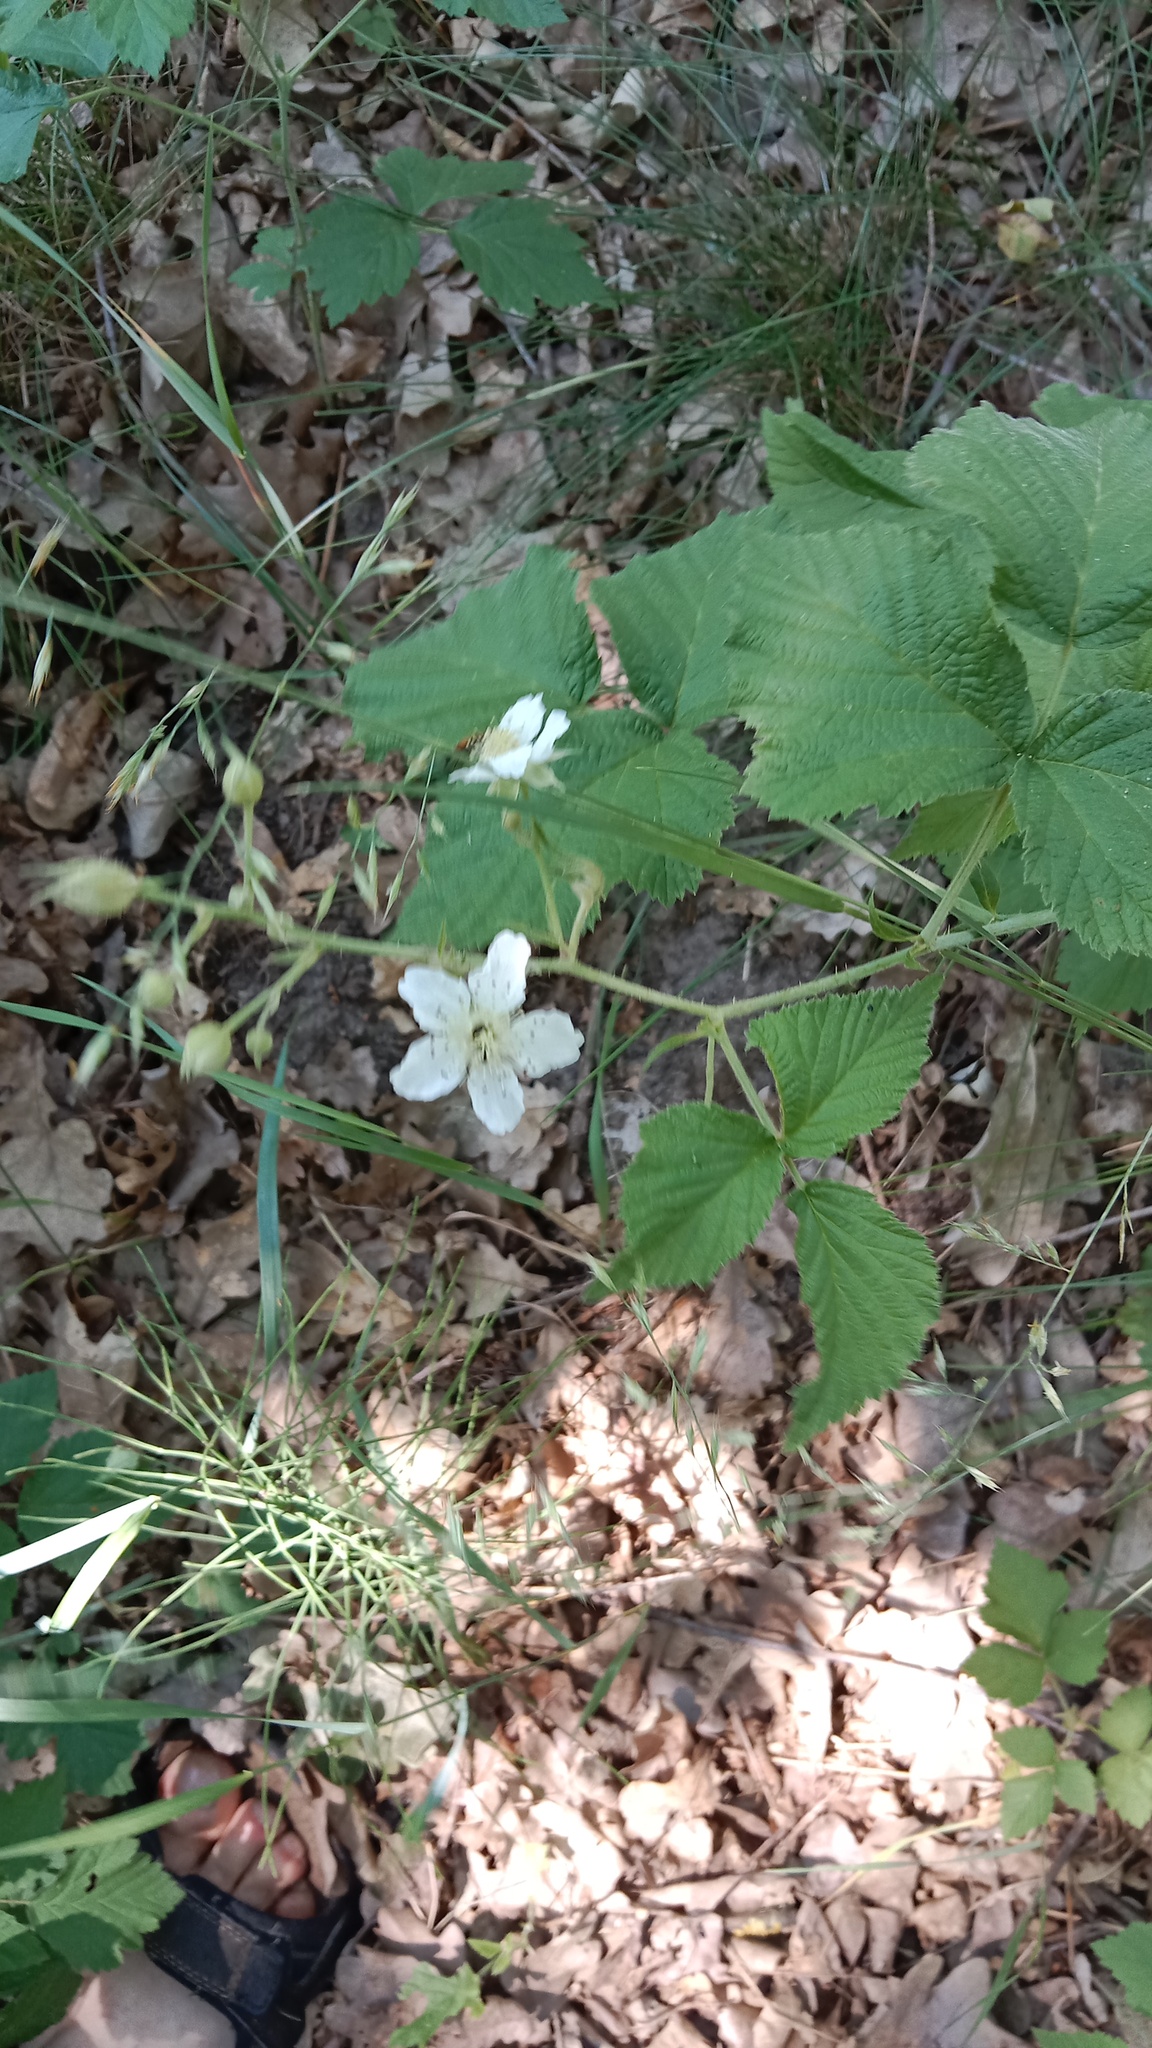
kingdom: Plantae
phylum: Tracheophyta
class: Magnoliopsida
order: Rosales
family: Rosaceae
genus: Rubus
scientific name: Rubus caesius
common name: Dewberry
